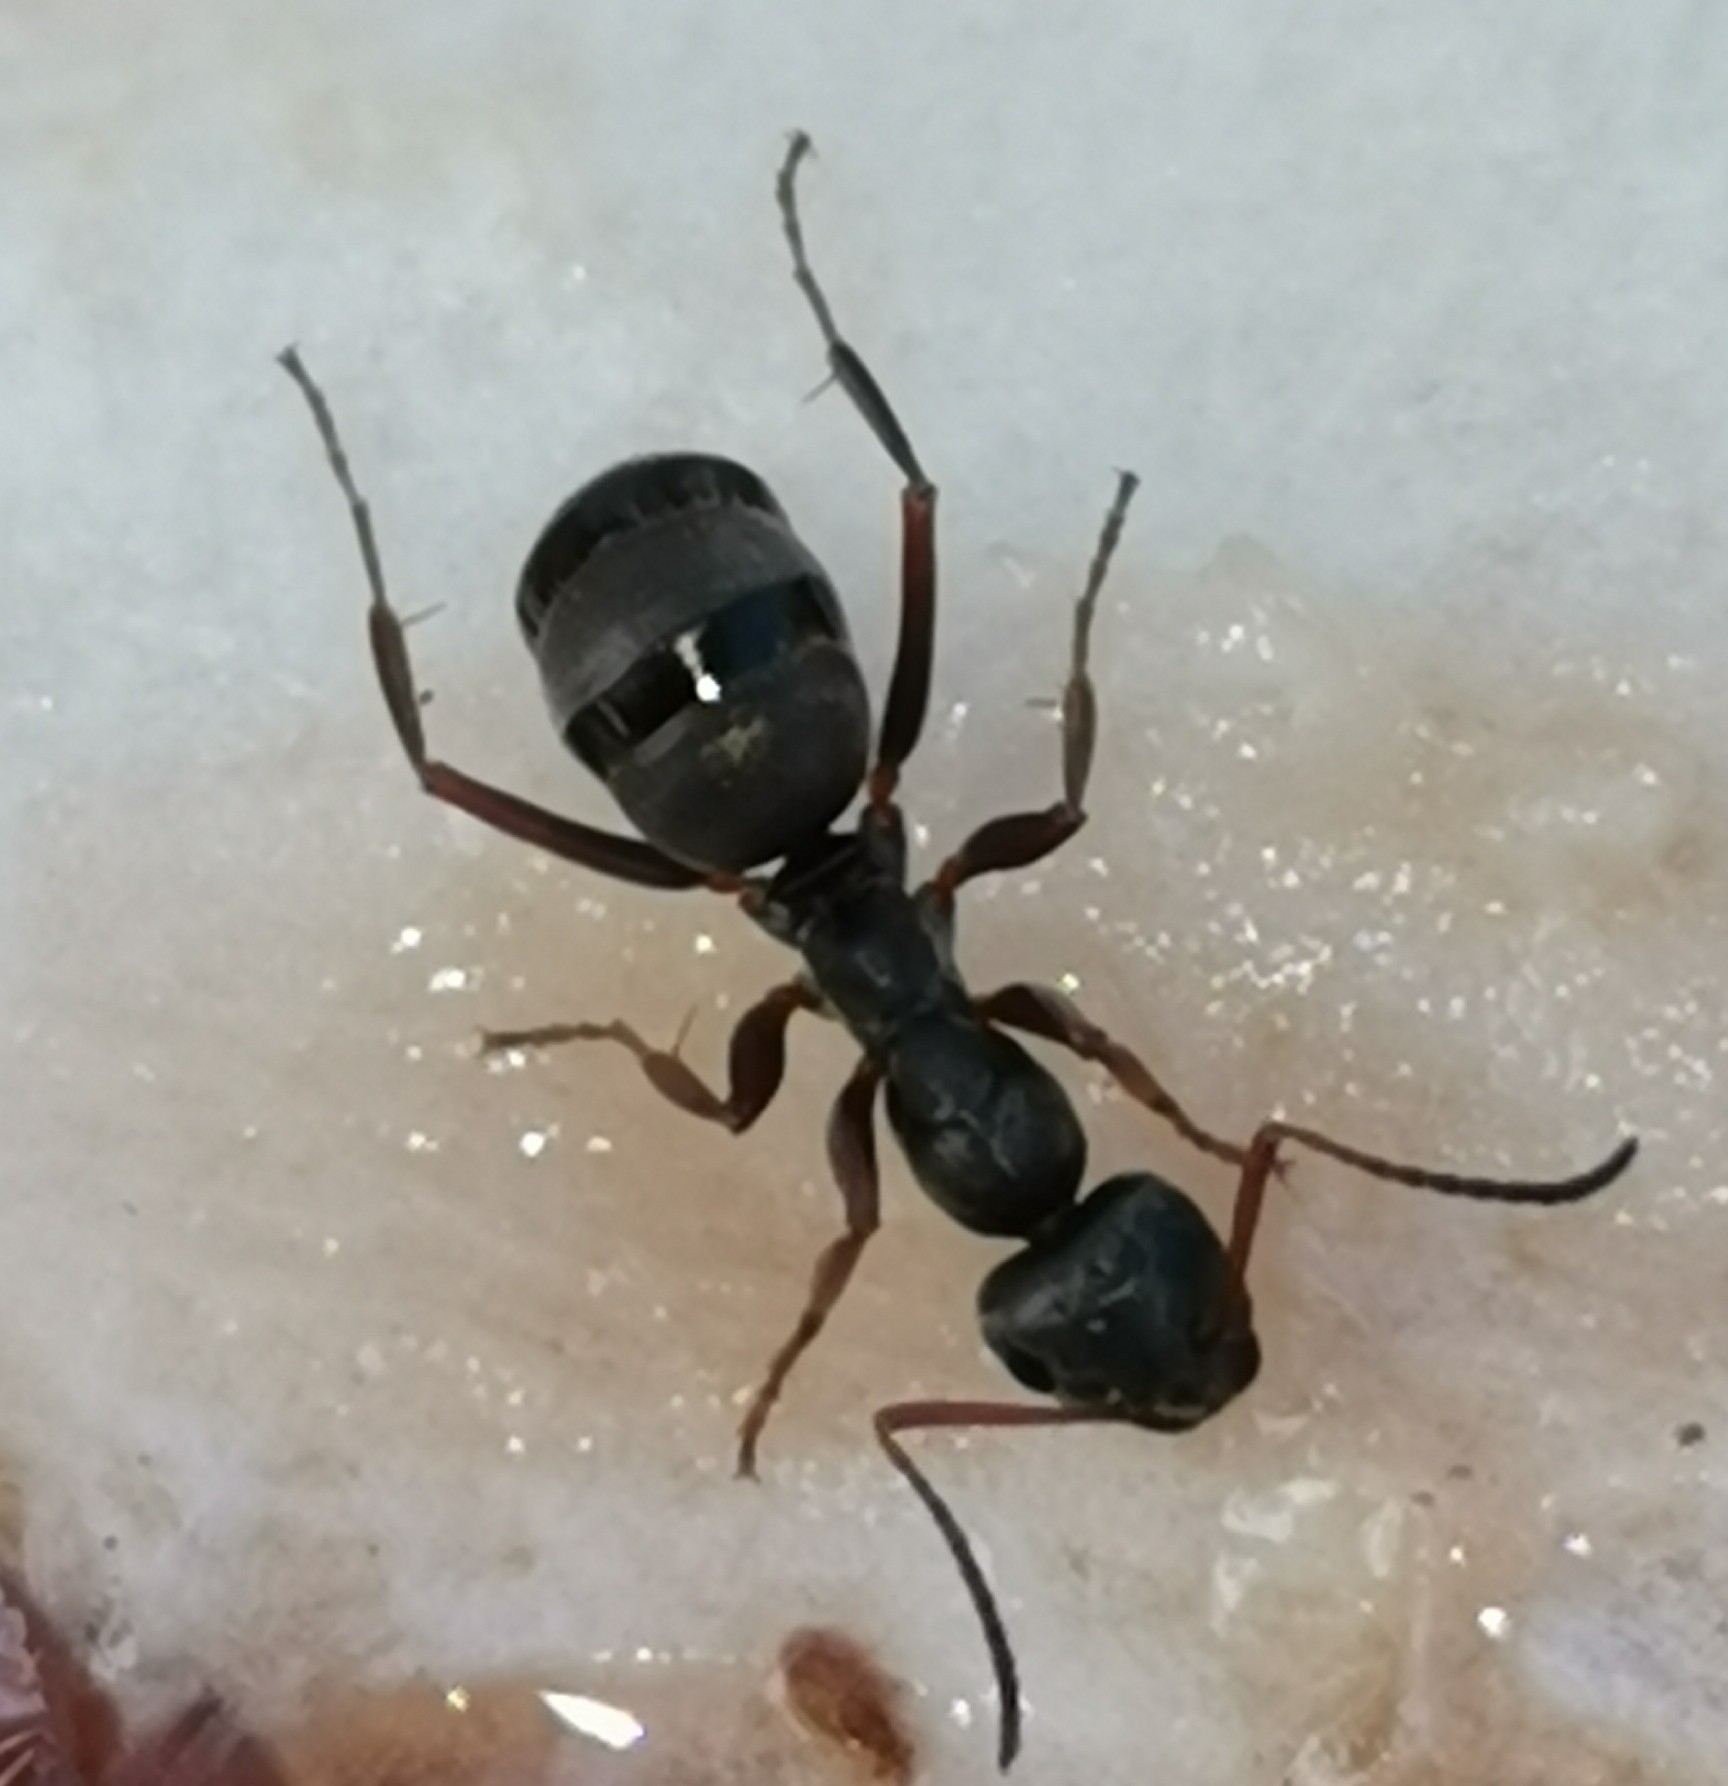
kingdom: Animalia
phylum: Arthropoda
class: Insecta
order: Hymenoptera
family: Formicidae
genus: Formica
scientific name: Formica fusca
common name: Silky ant
